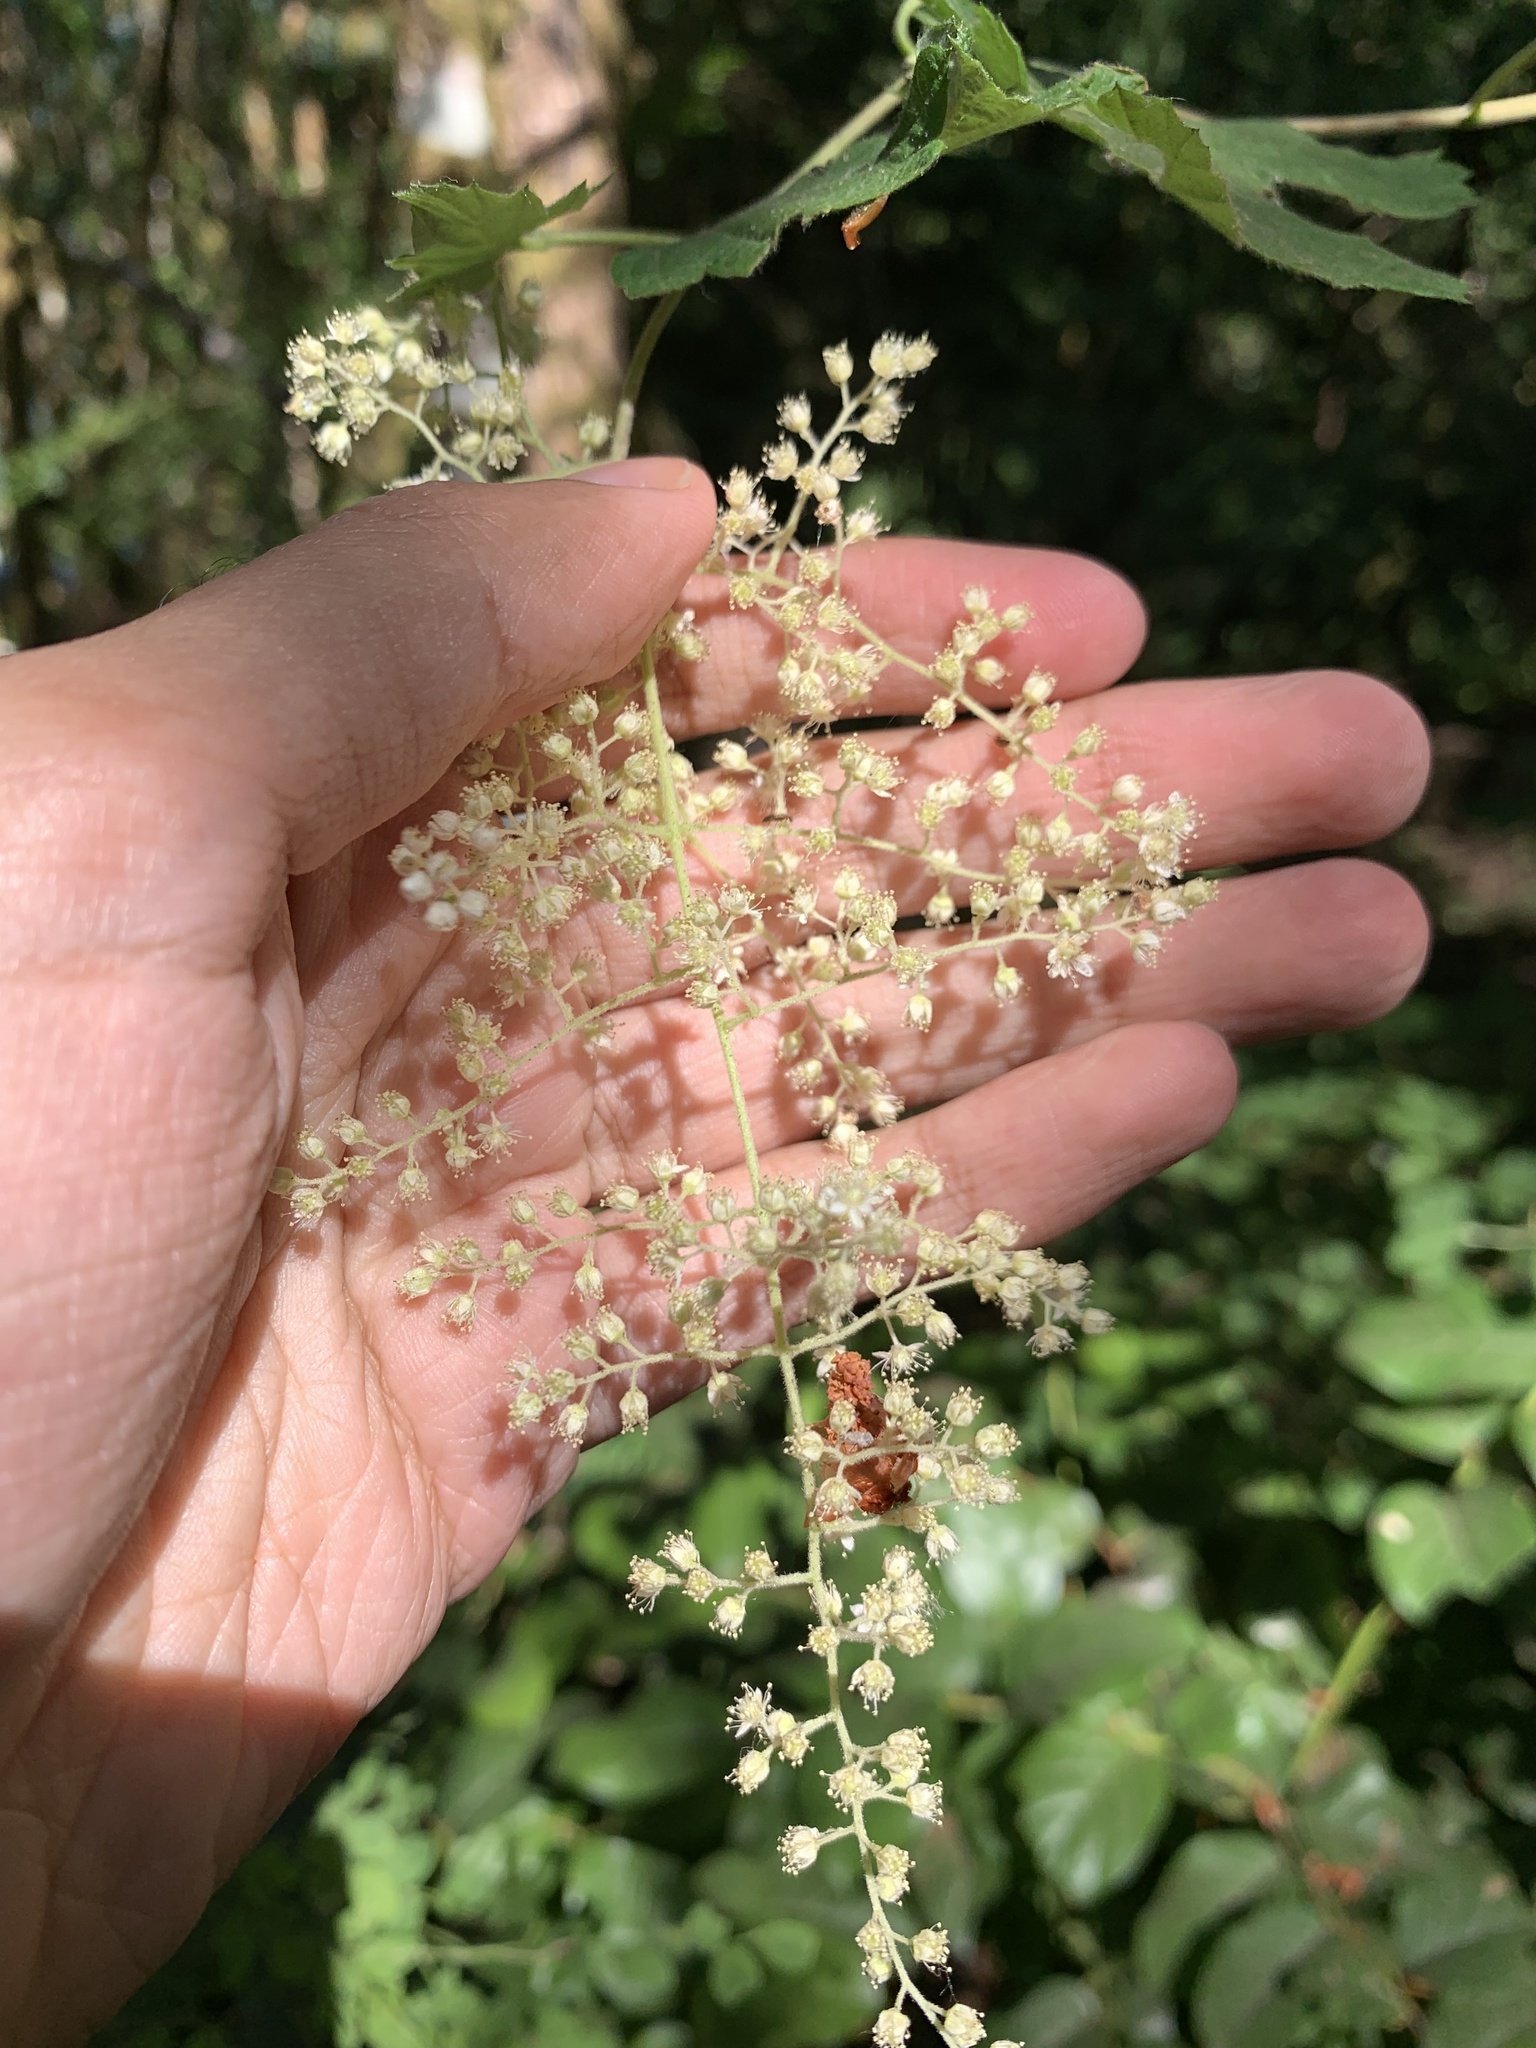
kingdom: Plantae
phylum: Tracheophyta
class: Magnoliopsida
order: Rosales
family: Rosaceae
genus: Holodiscus
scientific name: Holodiscus discolor
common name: Oceanspray
